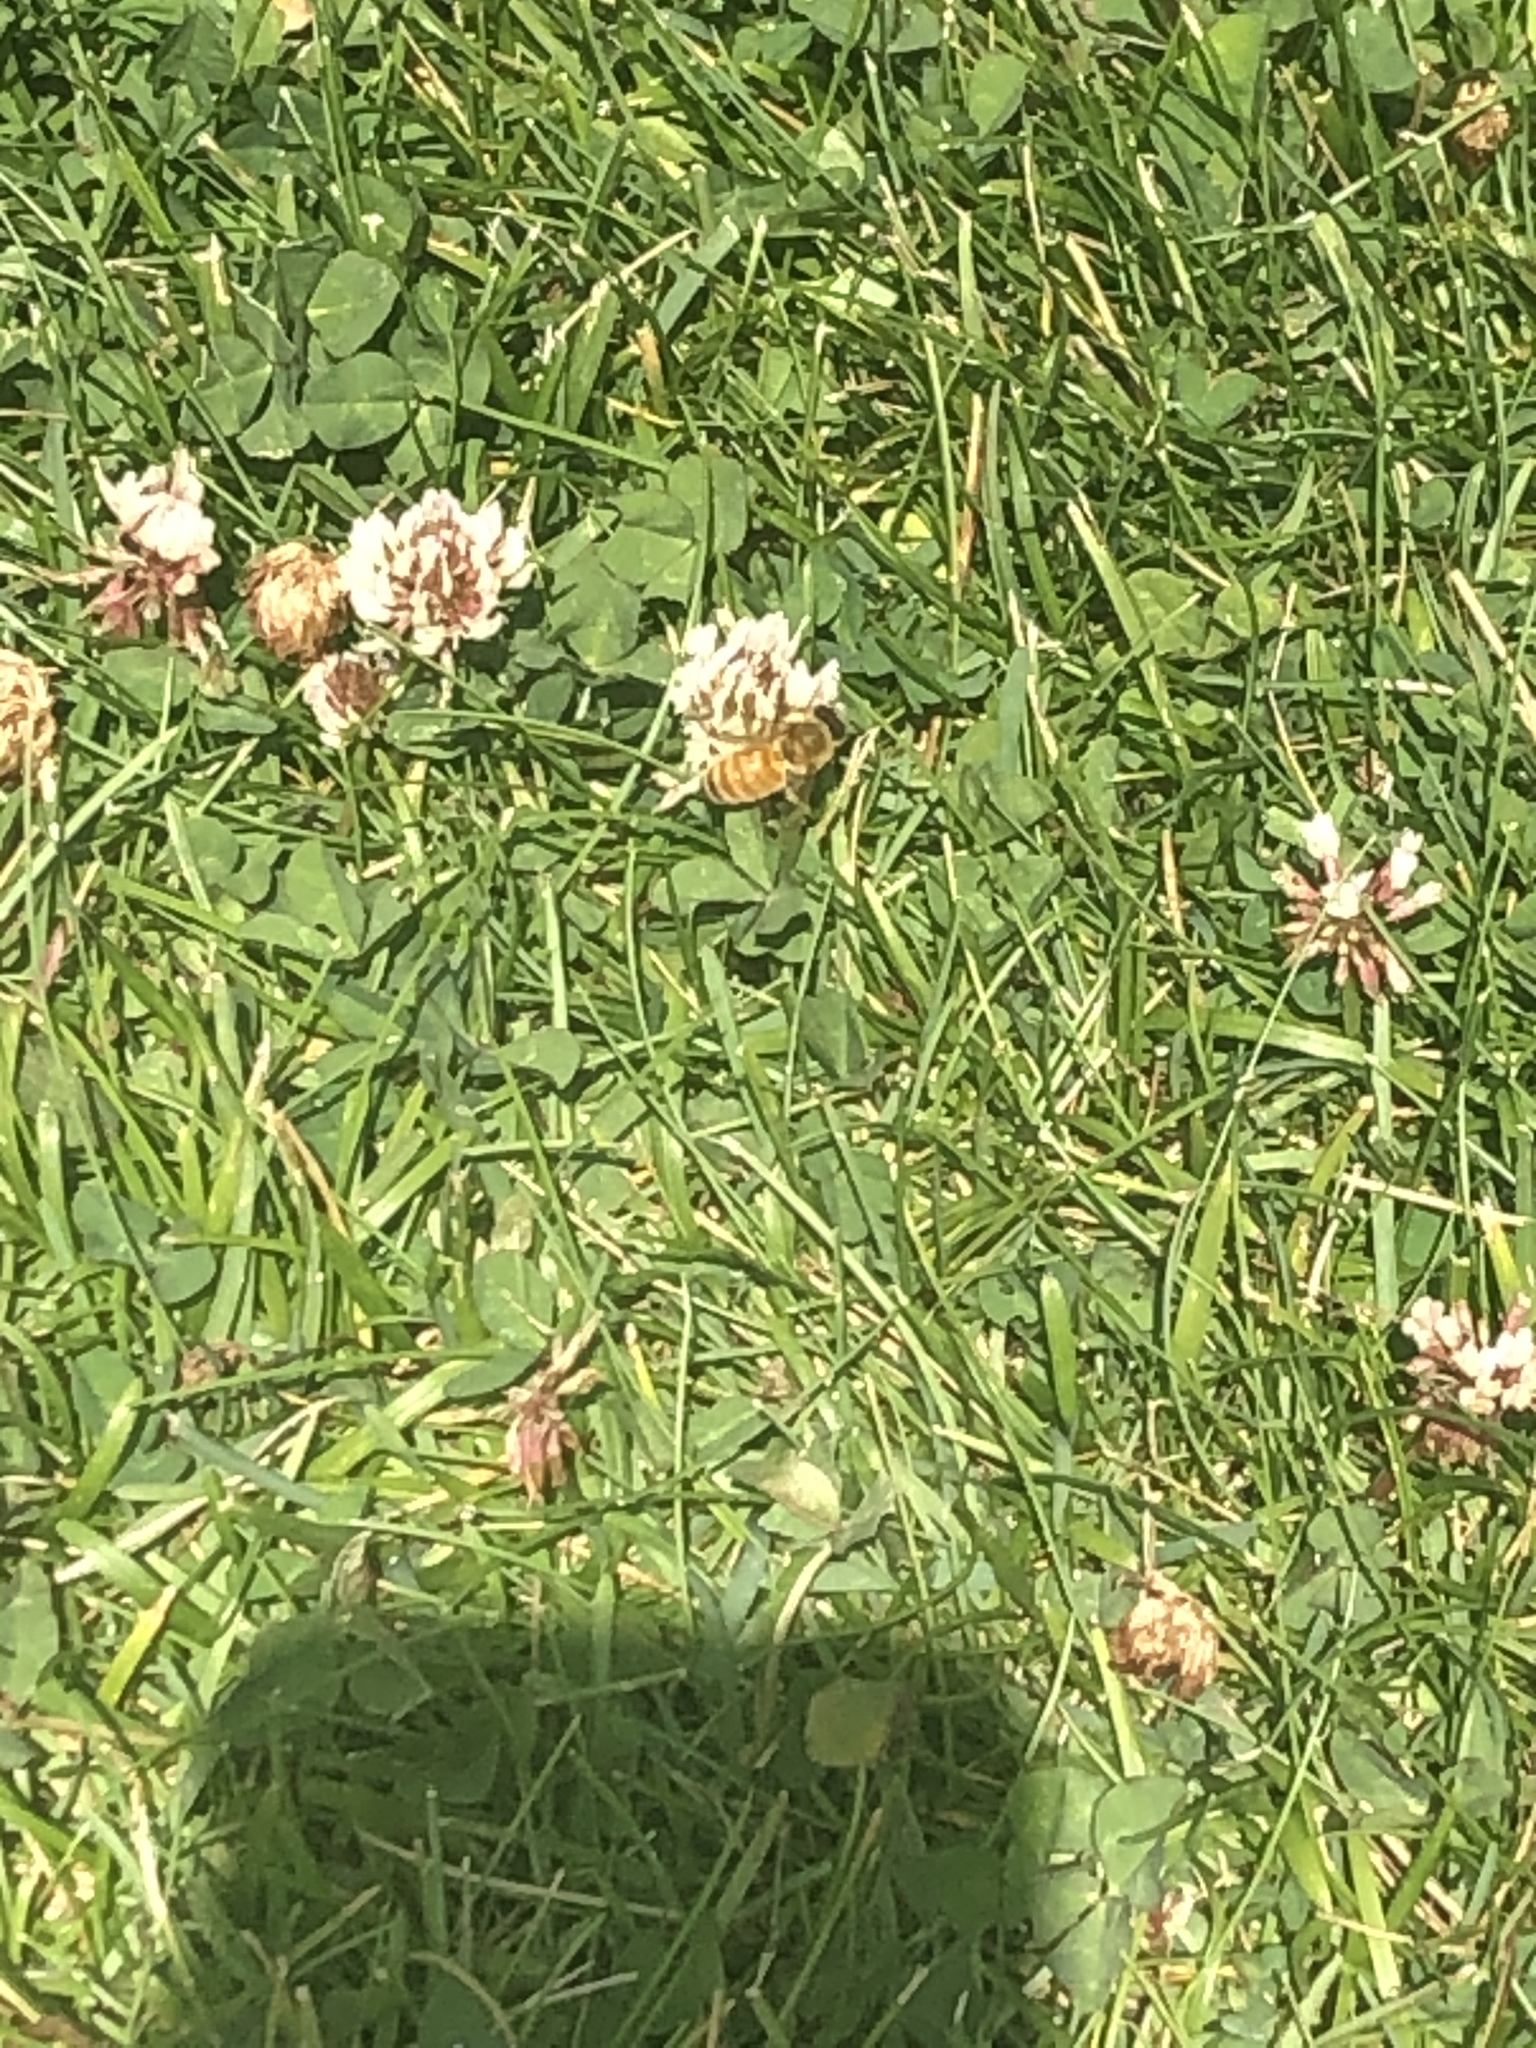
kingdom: Animalia
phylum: Arthropoda
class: Insecta
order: Hymenoptera
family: Apidae
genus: Apis
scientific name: Apis mellifera
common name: Honey bee
